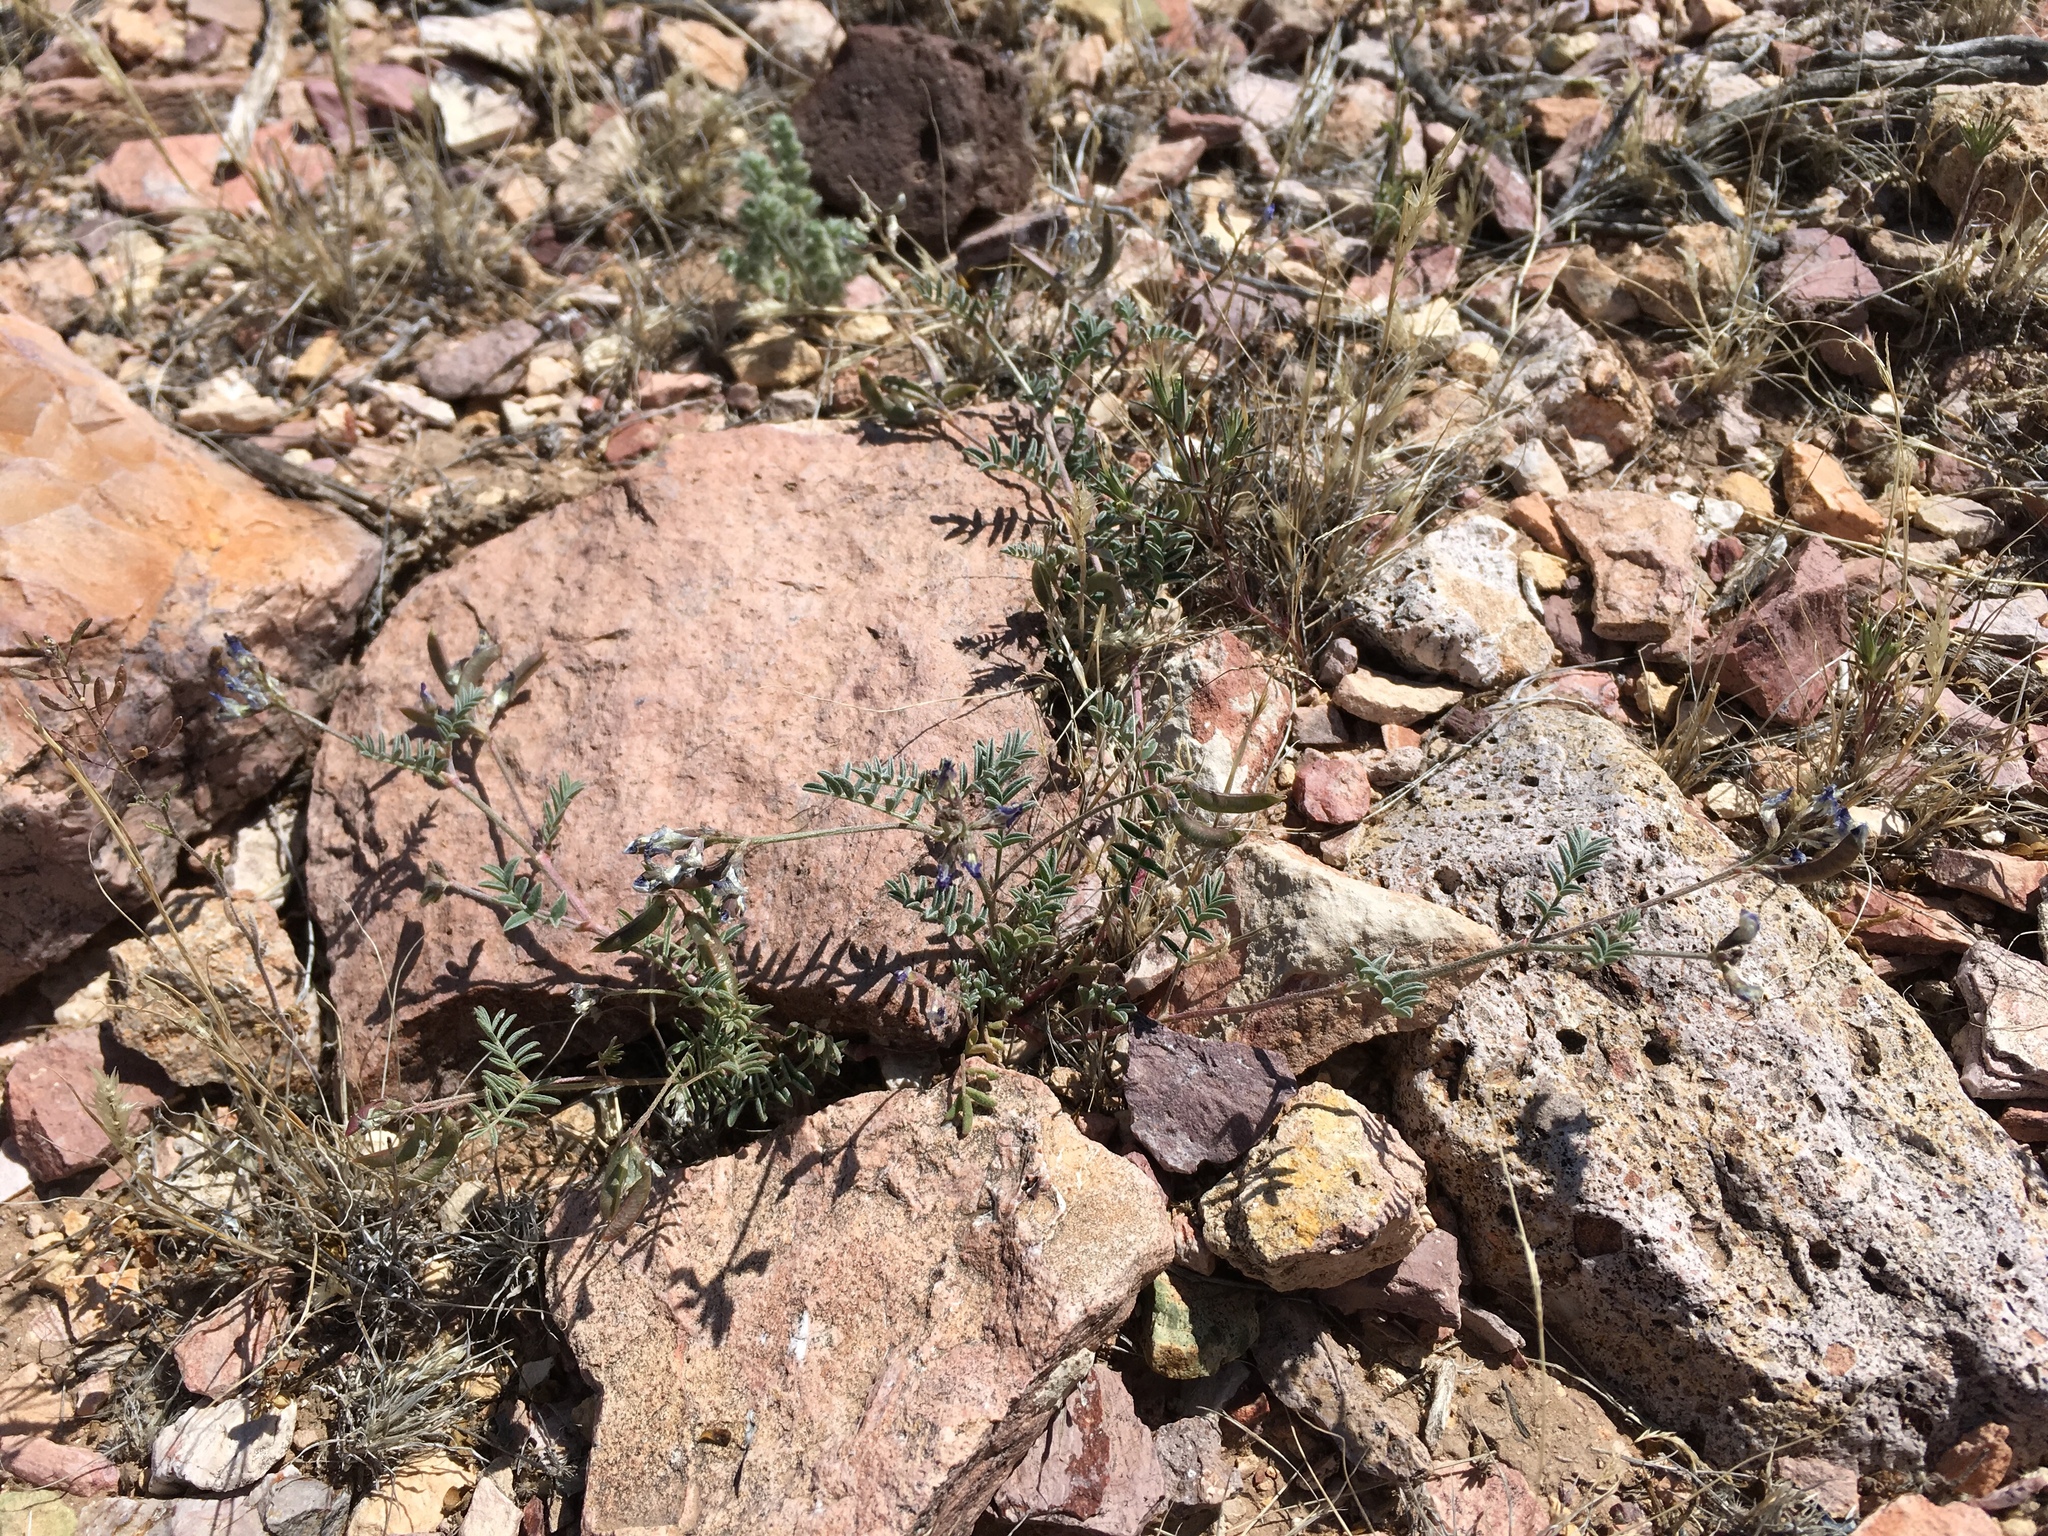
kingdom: Plantae
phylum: Tracheophyta
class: Magnoliopsida
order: Fabales
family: Fabaceae
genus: Astragalus
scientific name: Astragalus nuttallianus
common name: Smallflowered milkvetch
